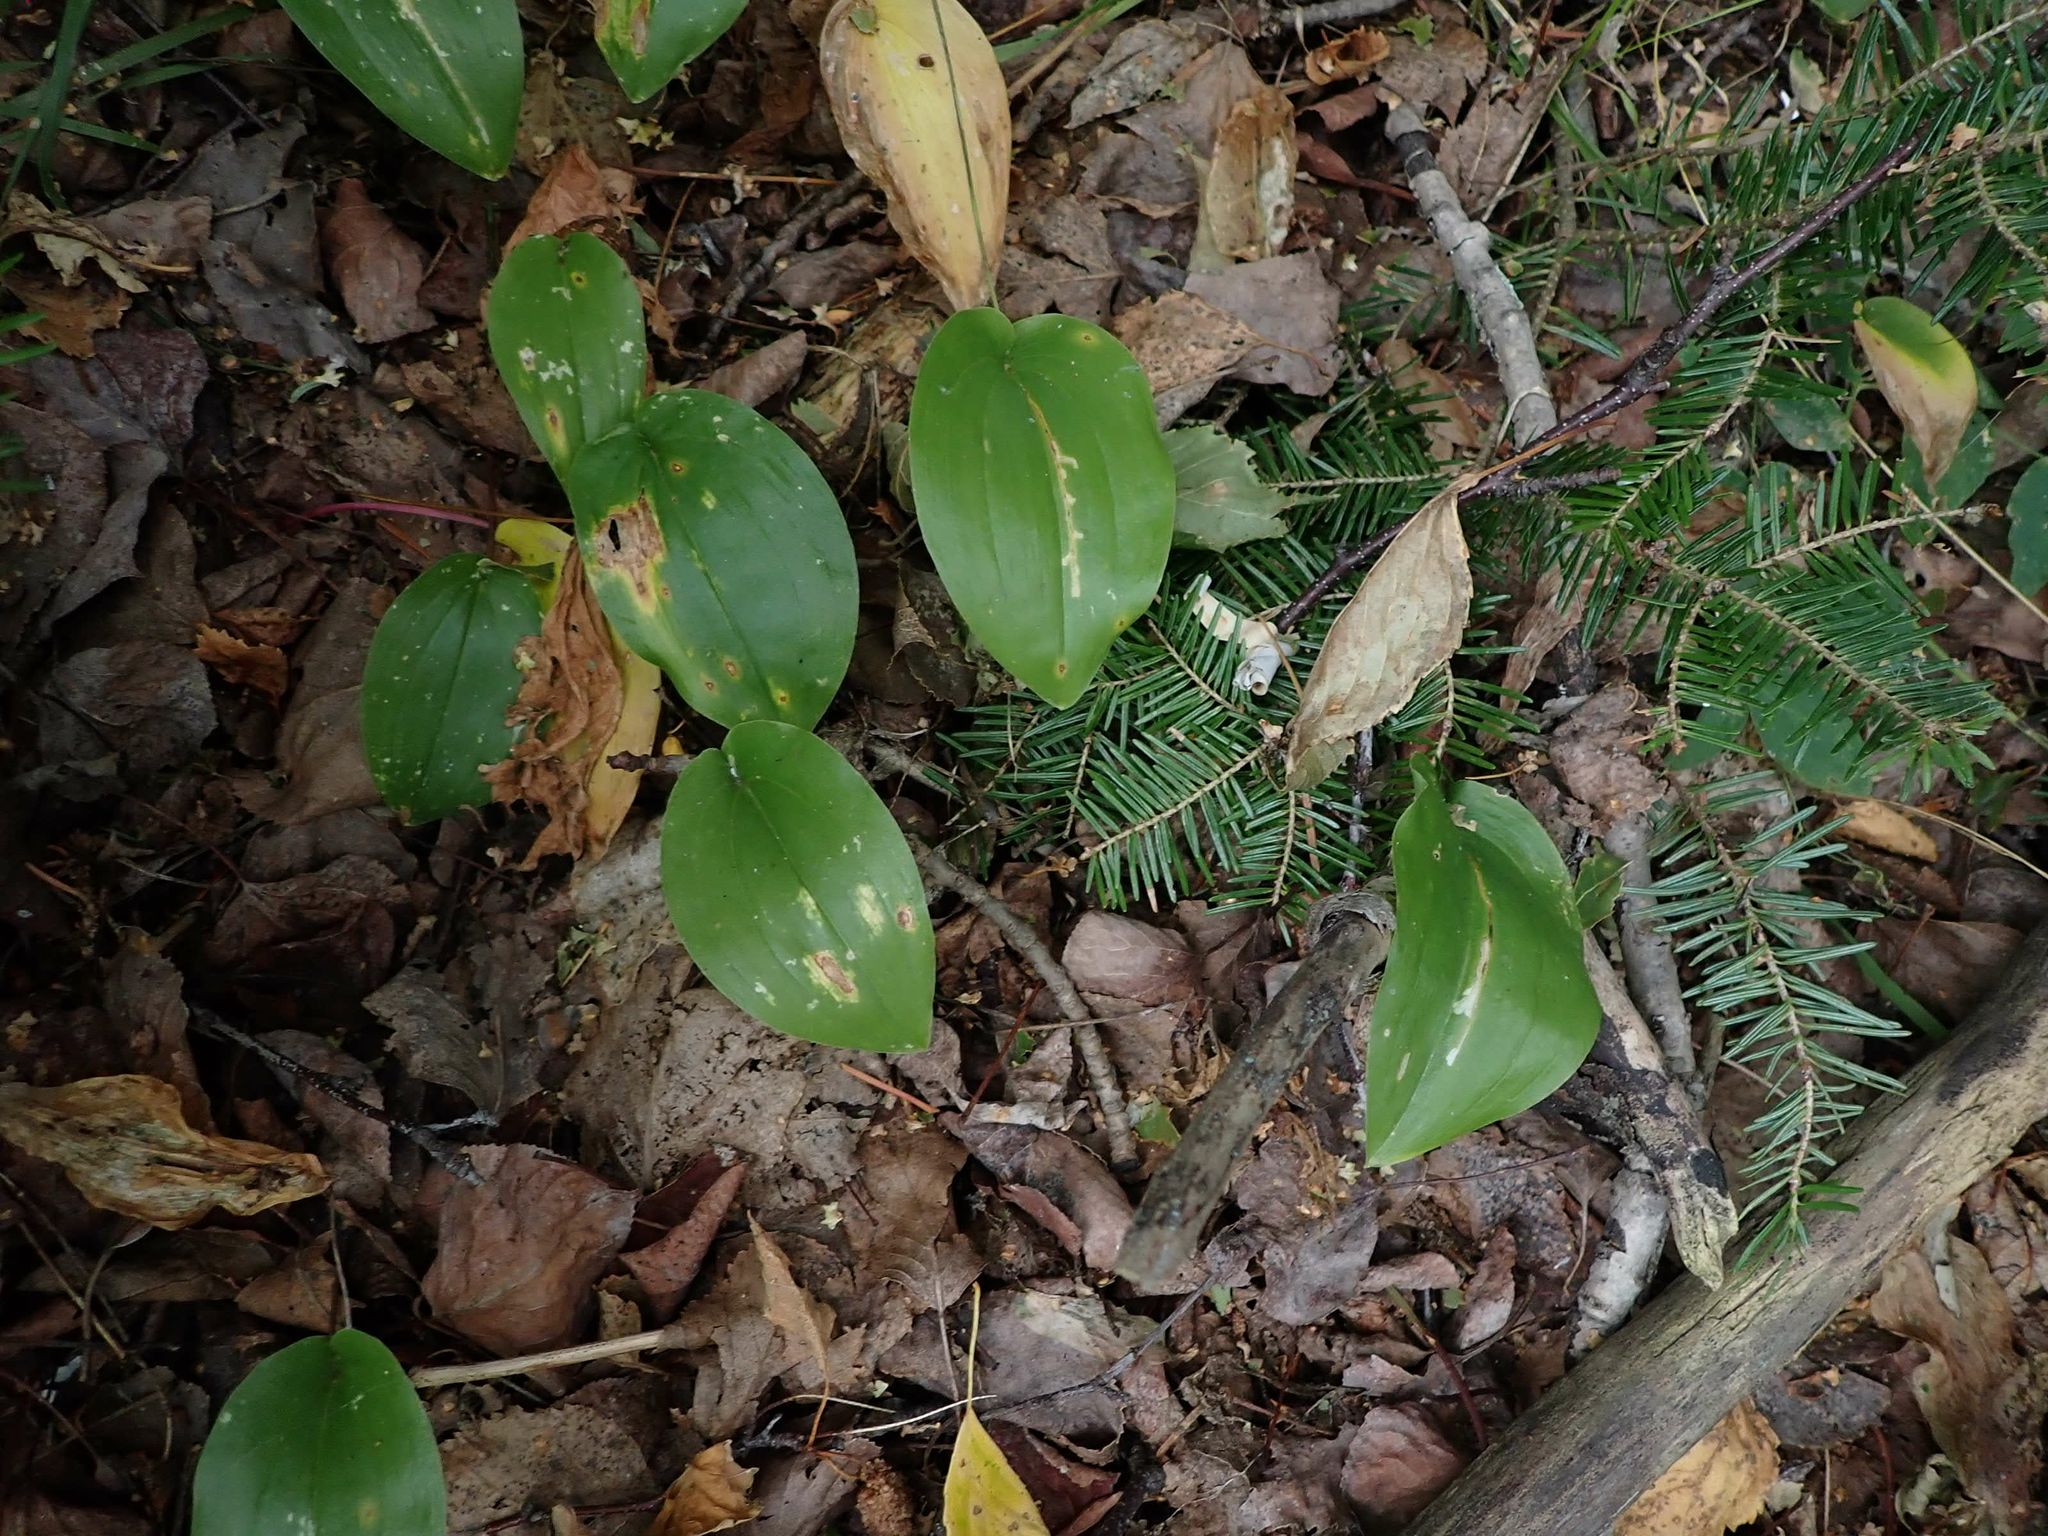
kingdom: Plantae
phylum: Tracheophyta
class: Liliopsida
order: Asparagales
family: Asparagaceae
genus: Maianthemum
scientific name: Maianthemum canadense
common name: False lily-of-the-valley
